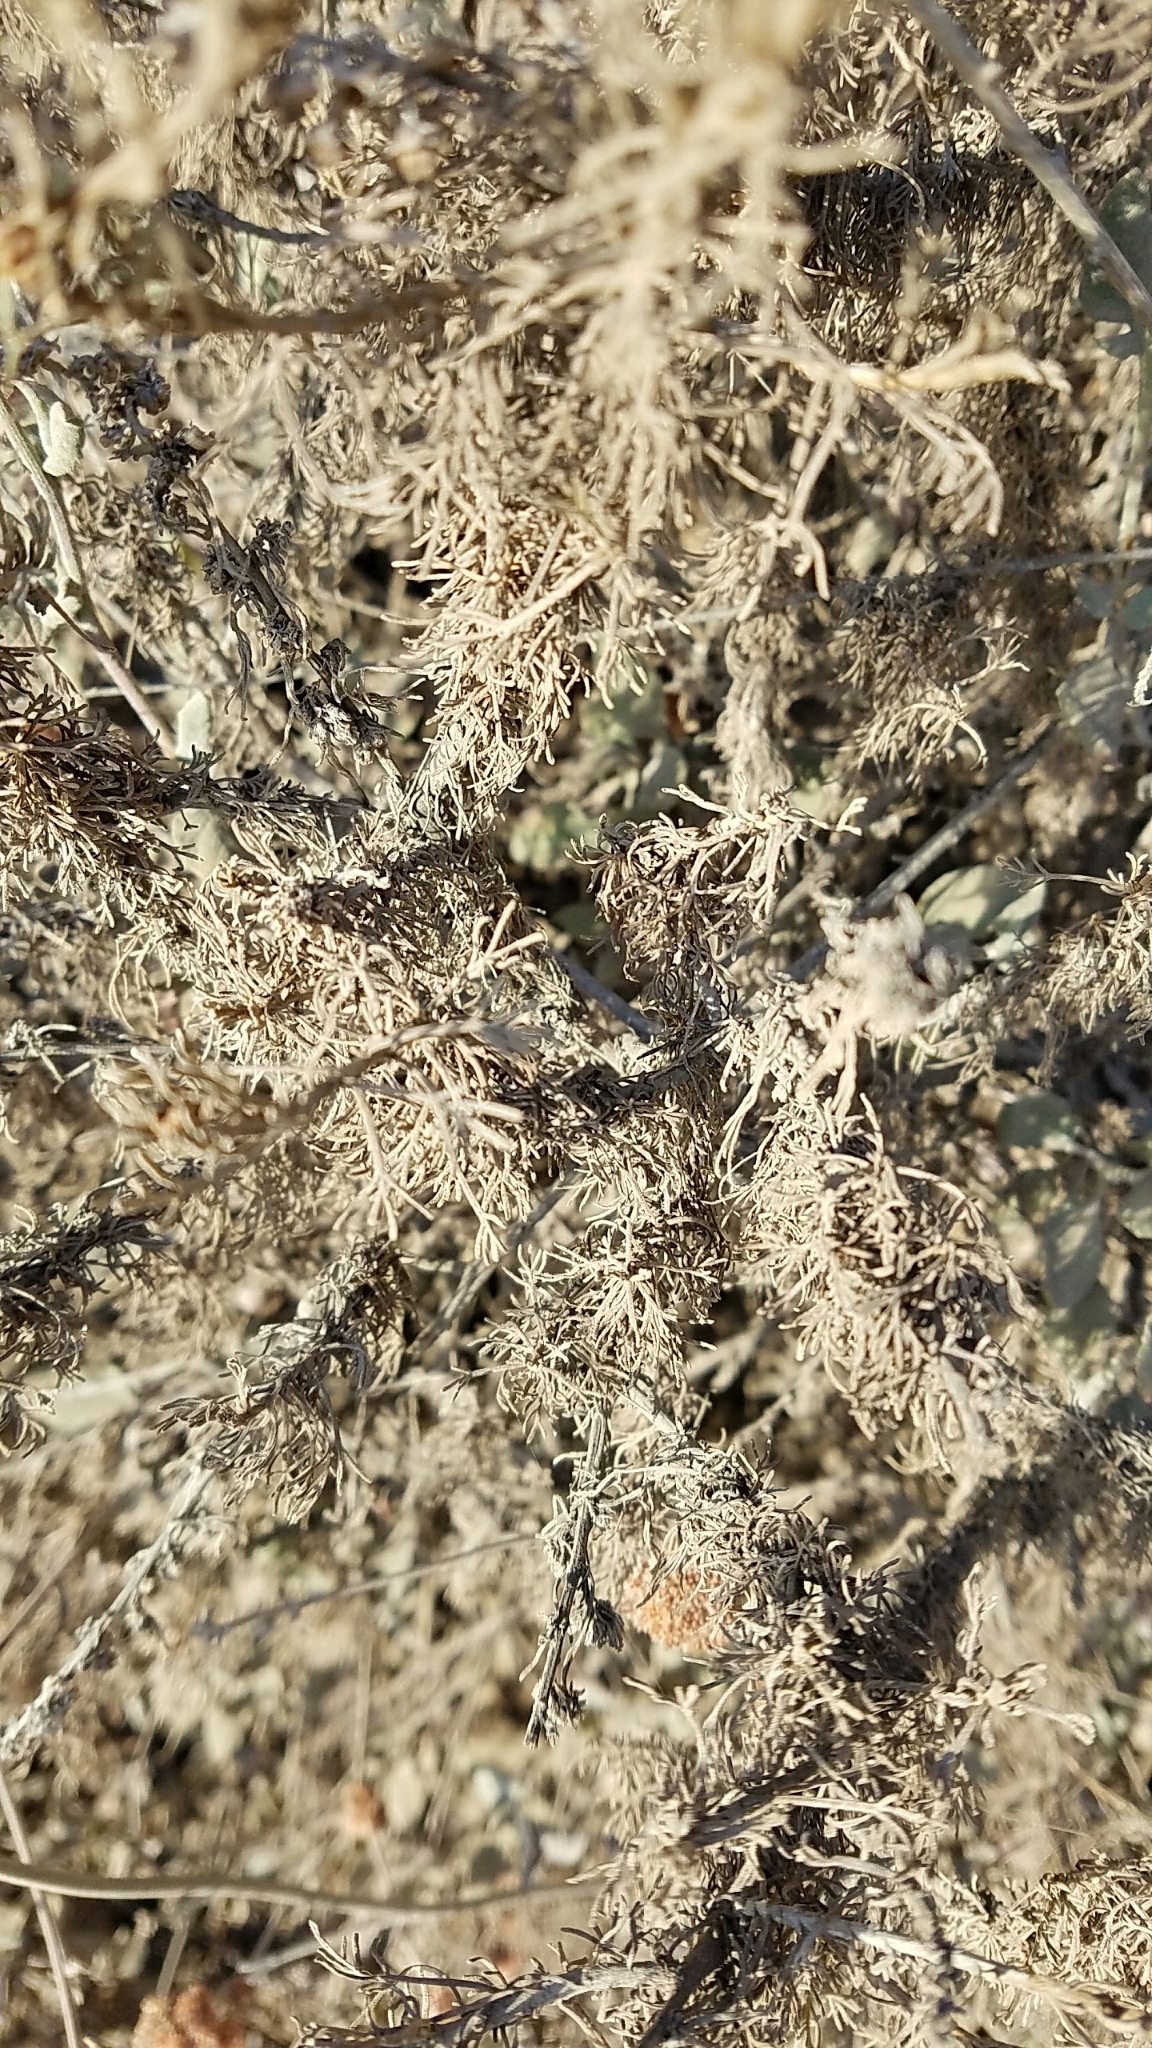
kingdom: Plantae
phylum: Tracheophyta
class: Magnoliopsida
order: Asterales
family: Asteraceae
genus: Artemisia
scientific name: Artemisia californica
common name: California sagebrush
